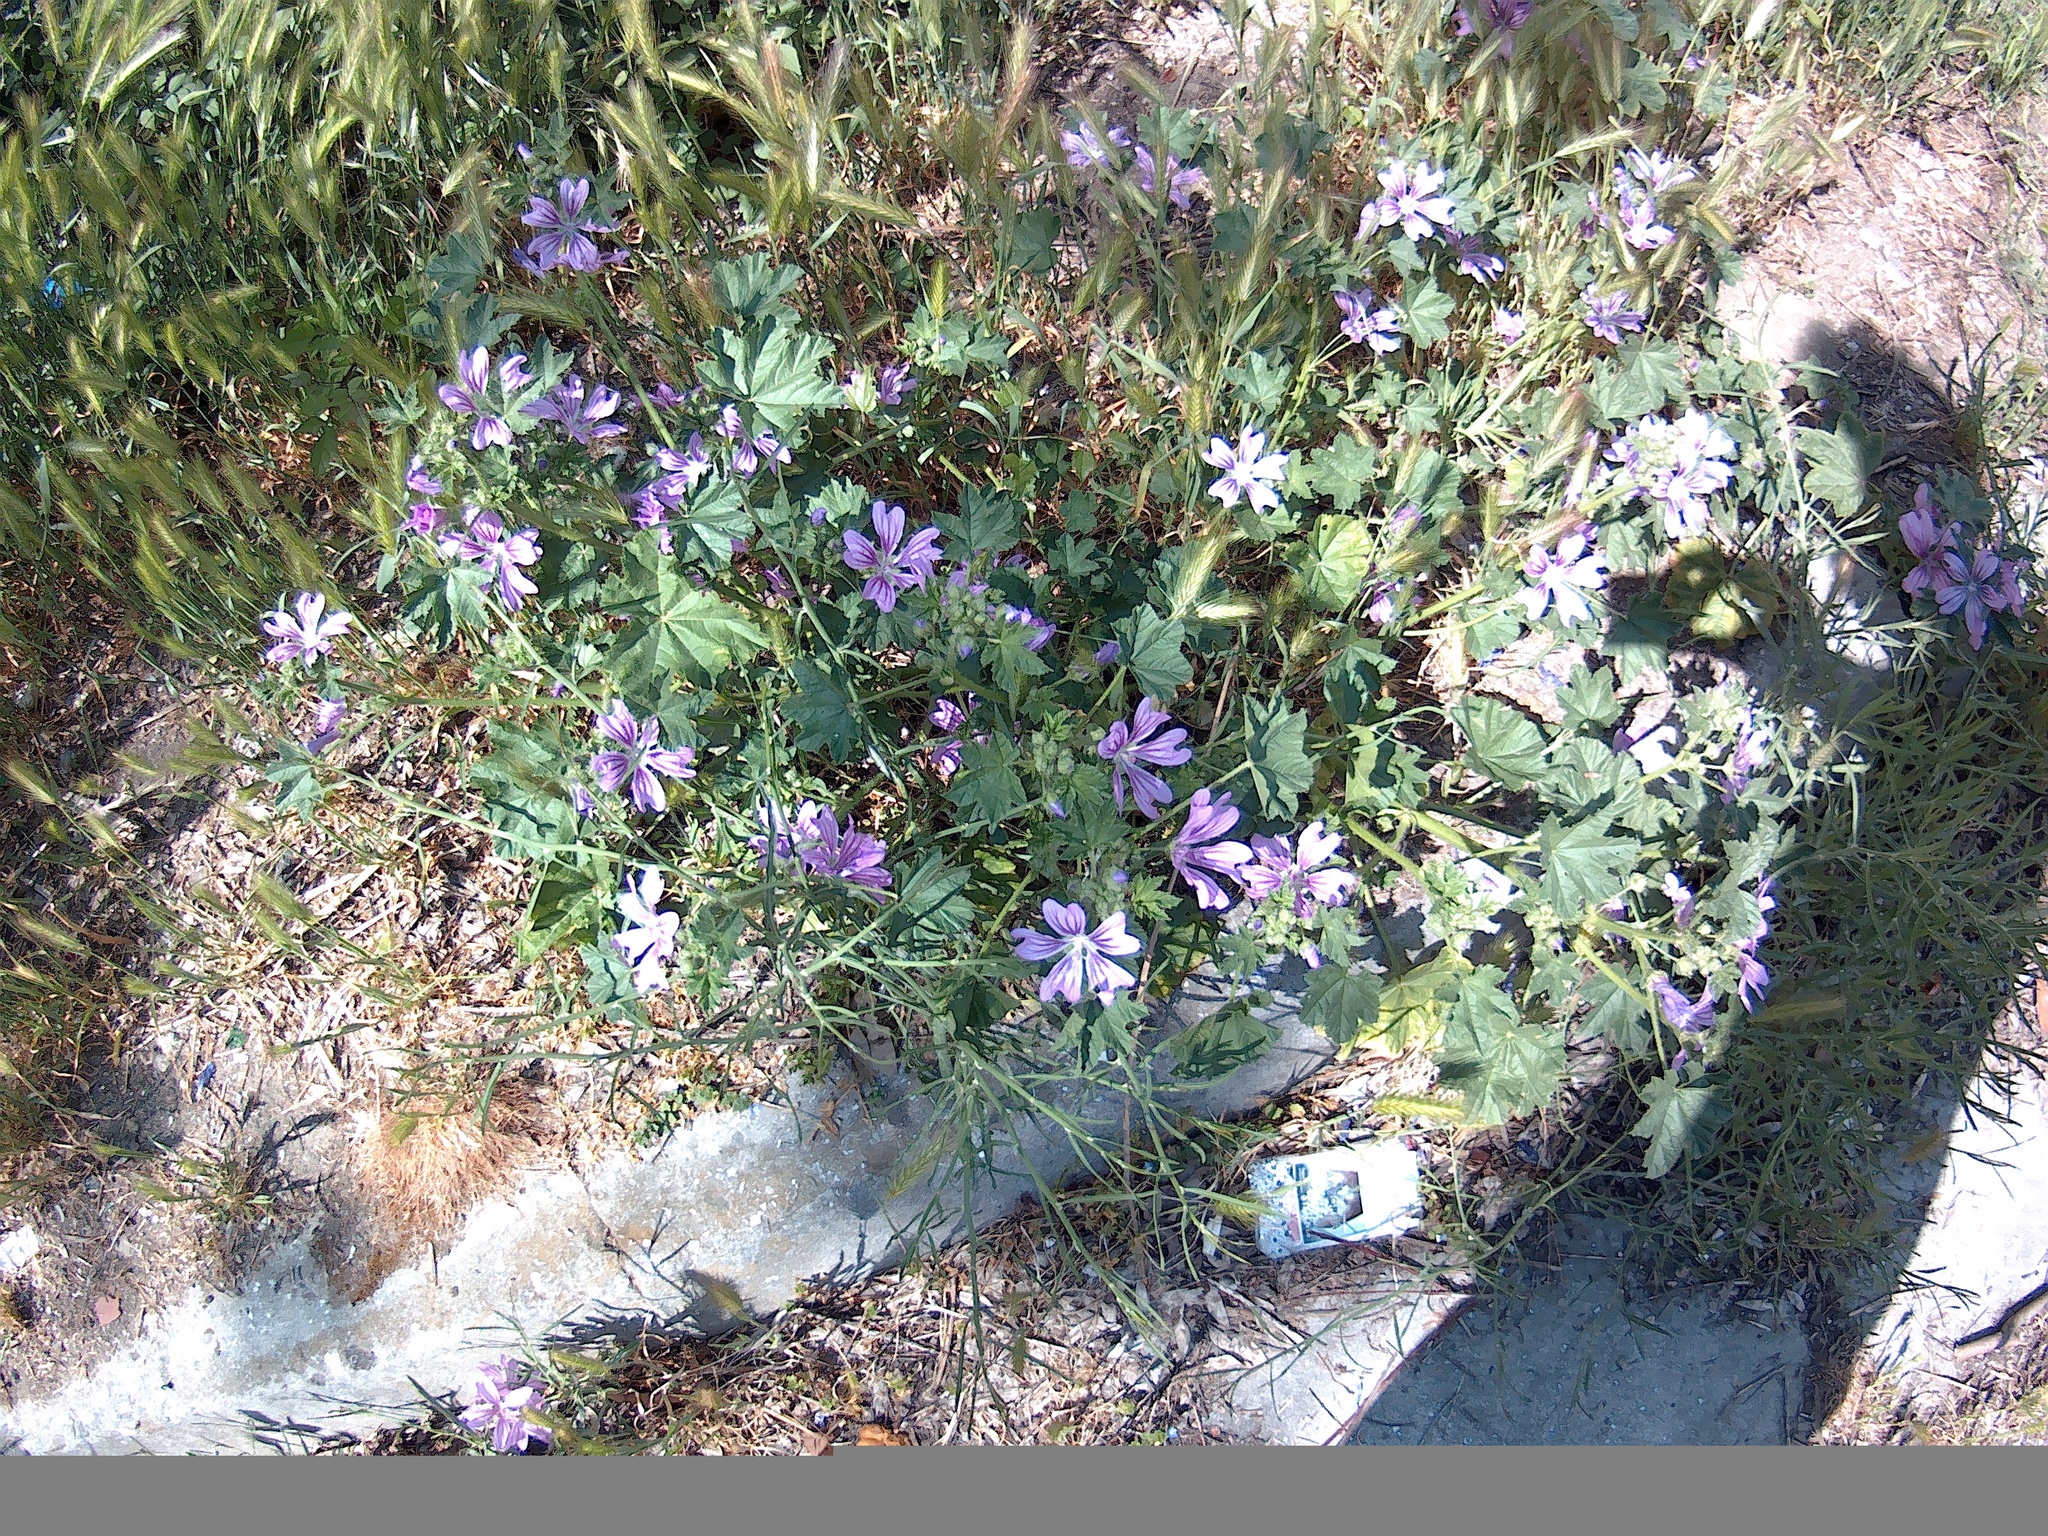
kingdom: Plantae
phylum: Tracheophyta
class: Magnoliopsida
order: Malvales
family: Malvaceae
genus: Malva
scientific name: Malva sylvestris
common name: Common mallow
